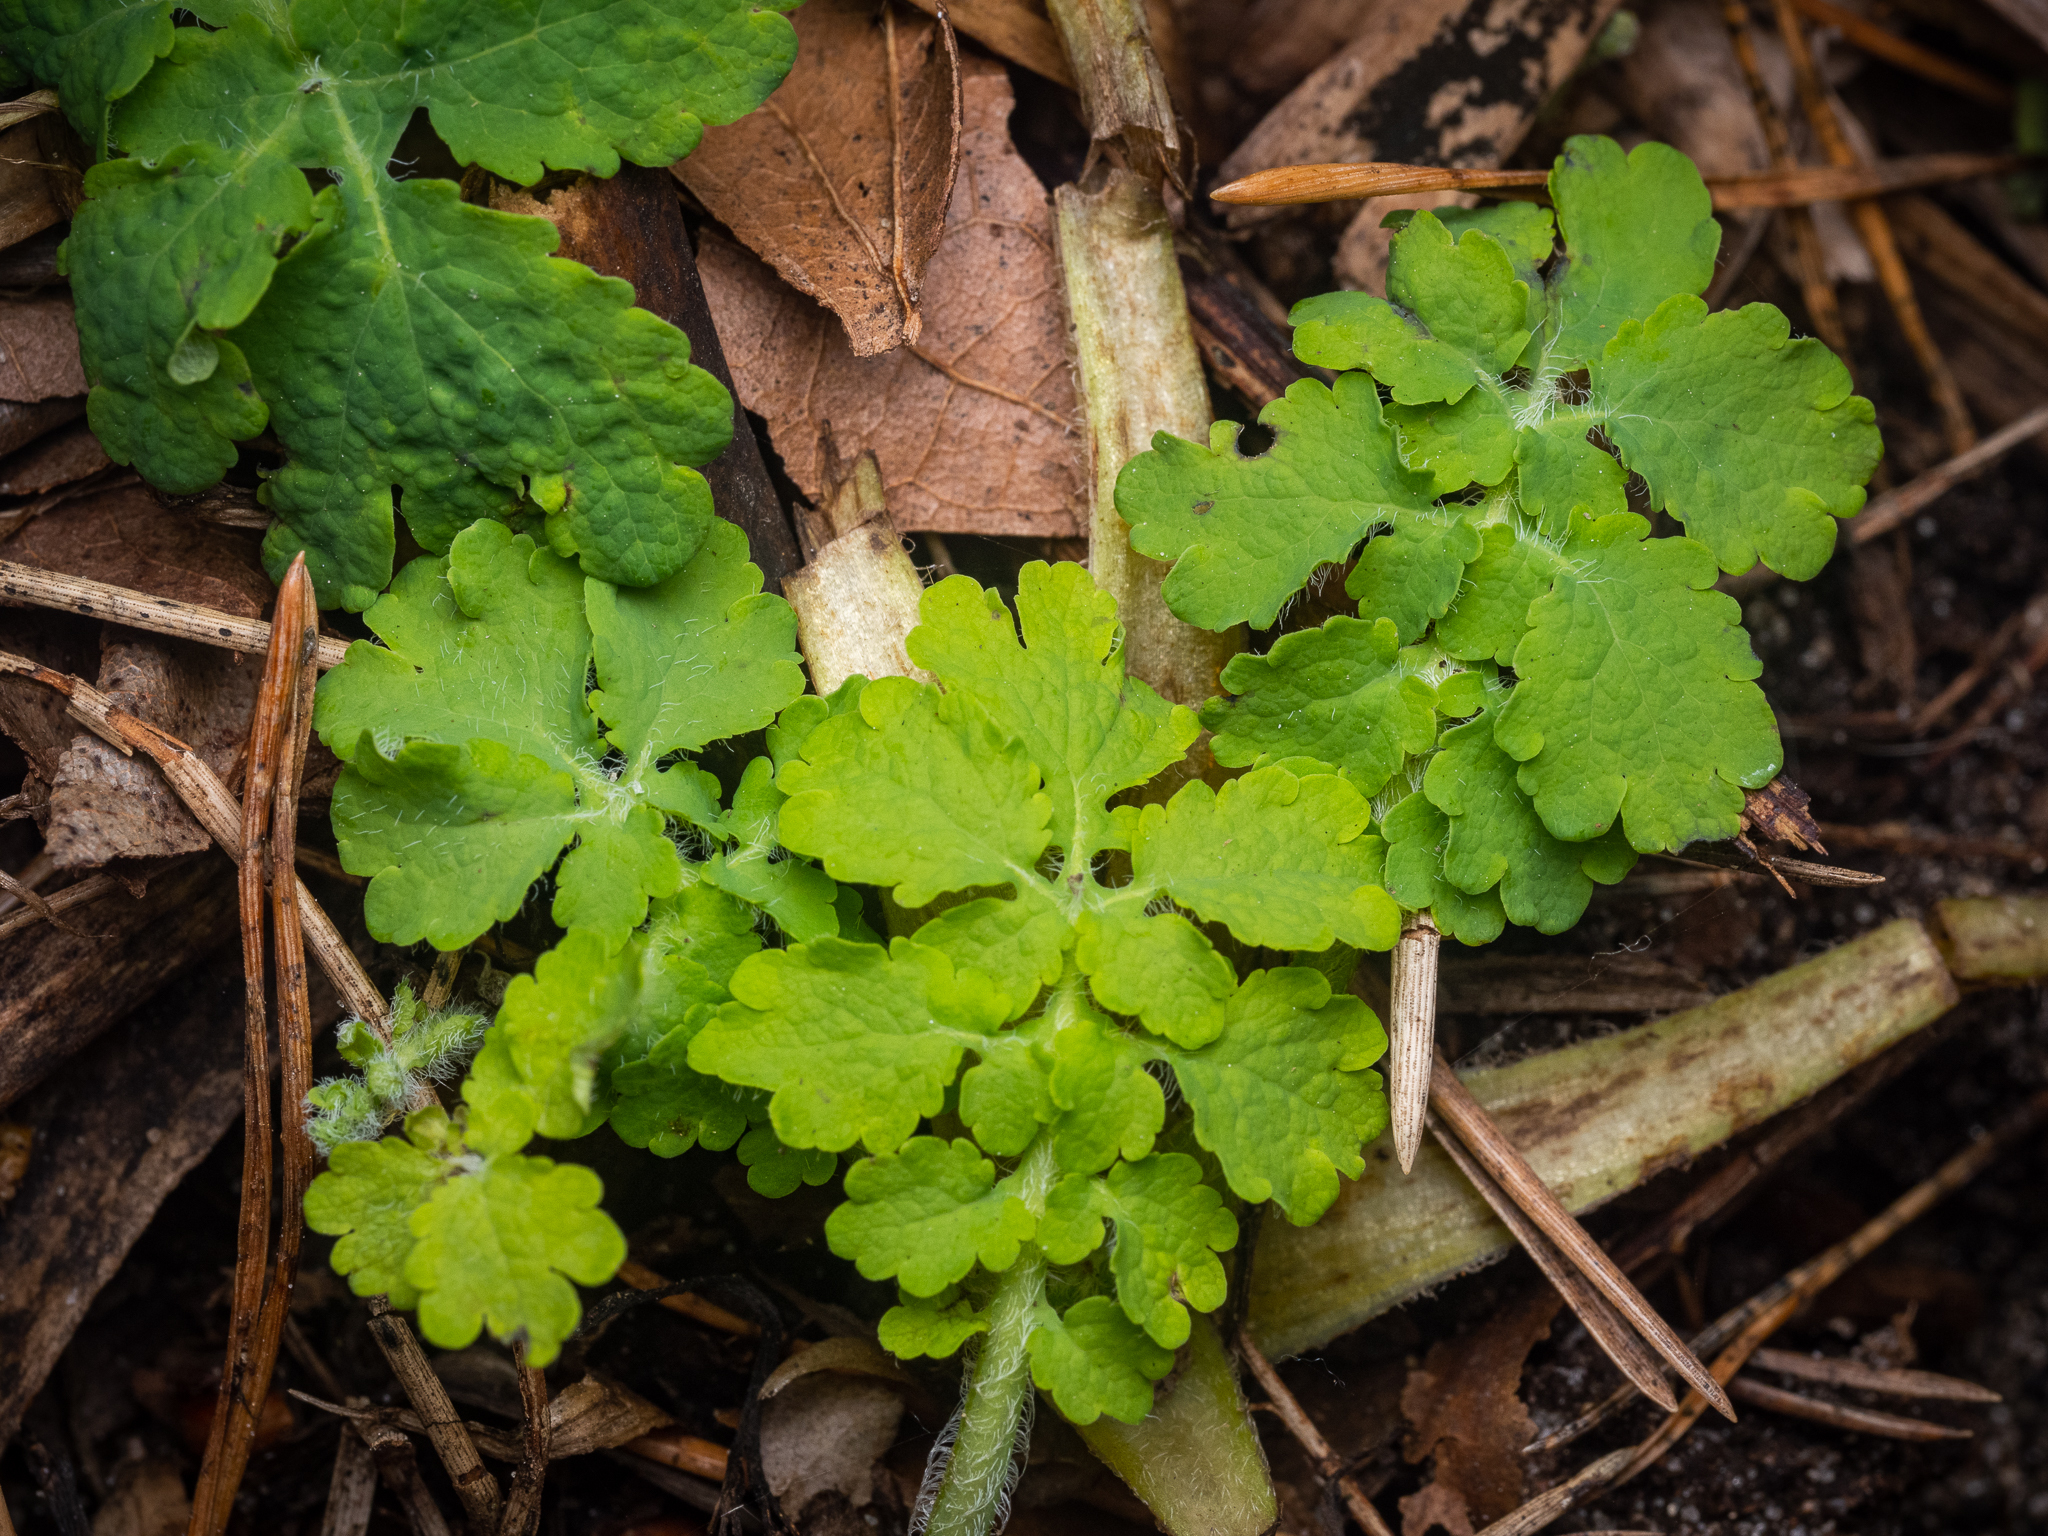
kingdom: Plantae
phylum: Tracheophyta
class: Magnoliopsida
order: Ranunculales
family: Papaveraceae
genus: Chelidonium
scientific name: Chelidonium majus
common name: Greater celandine
